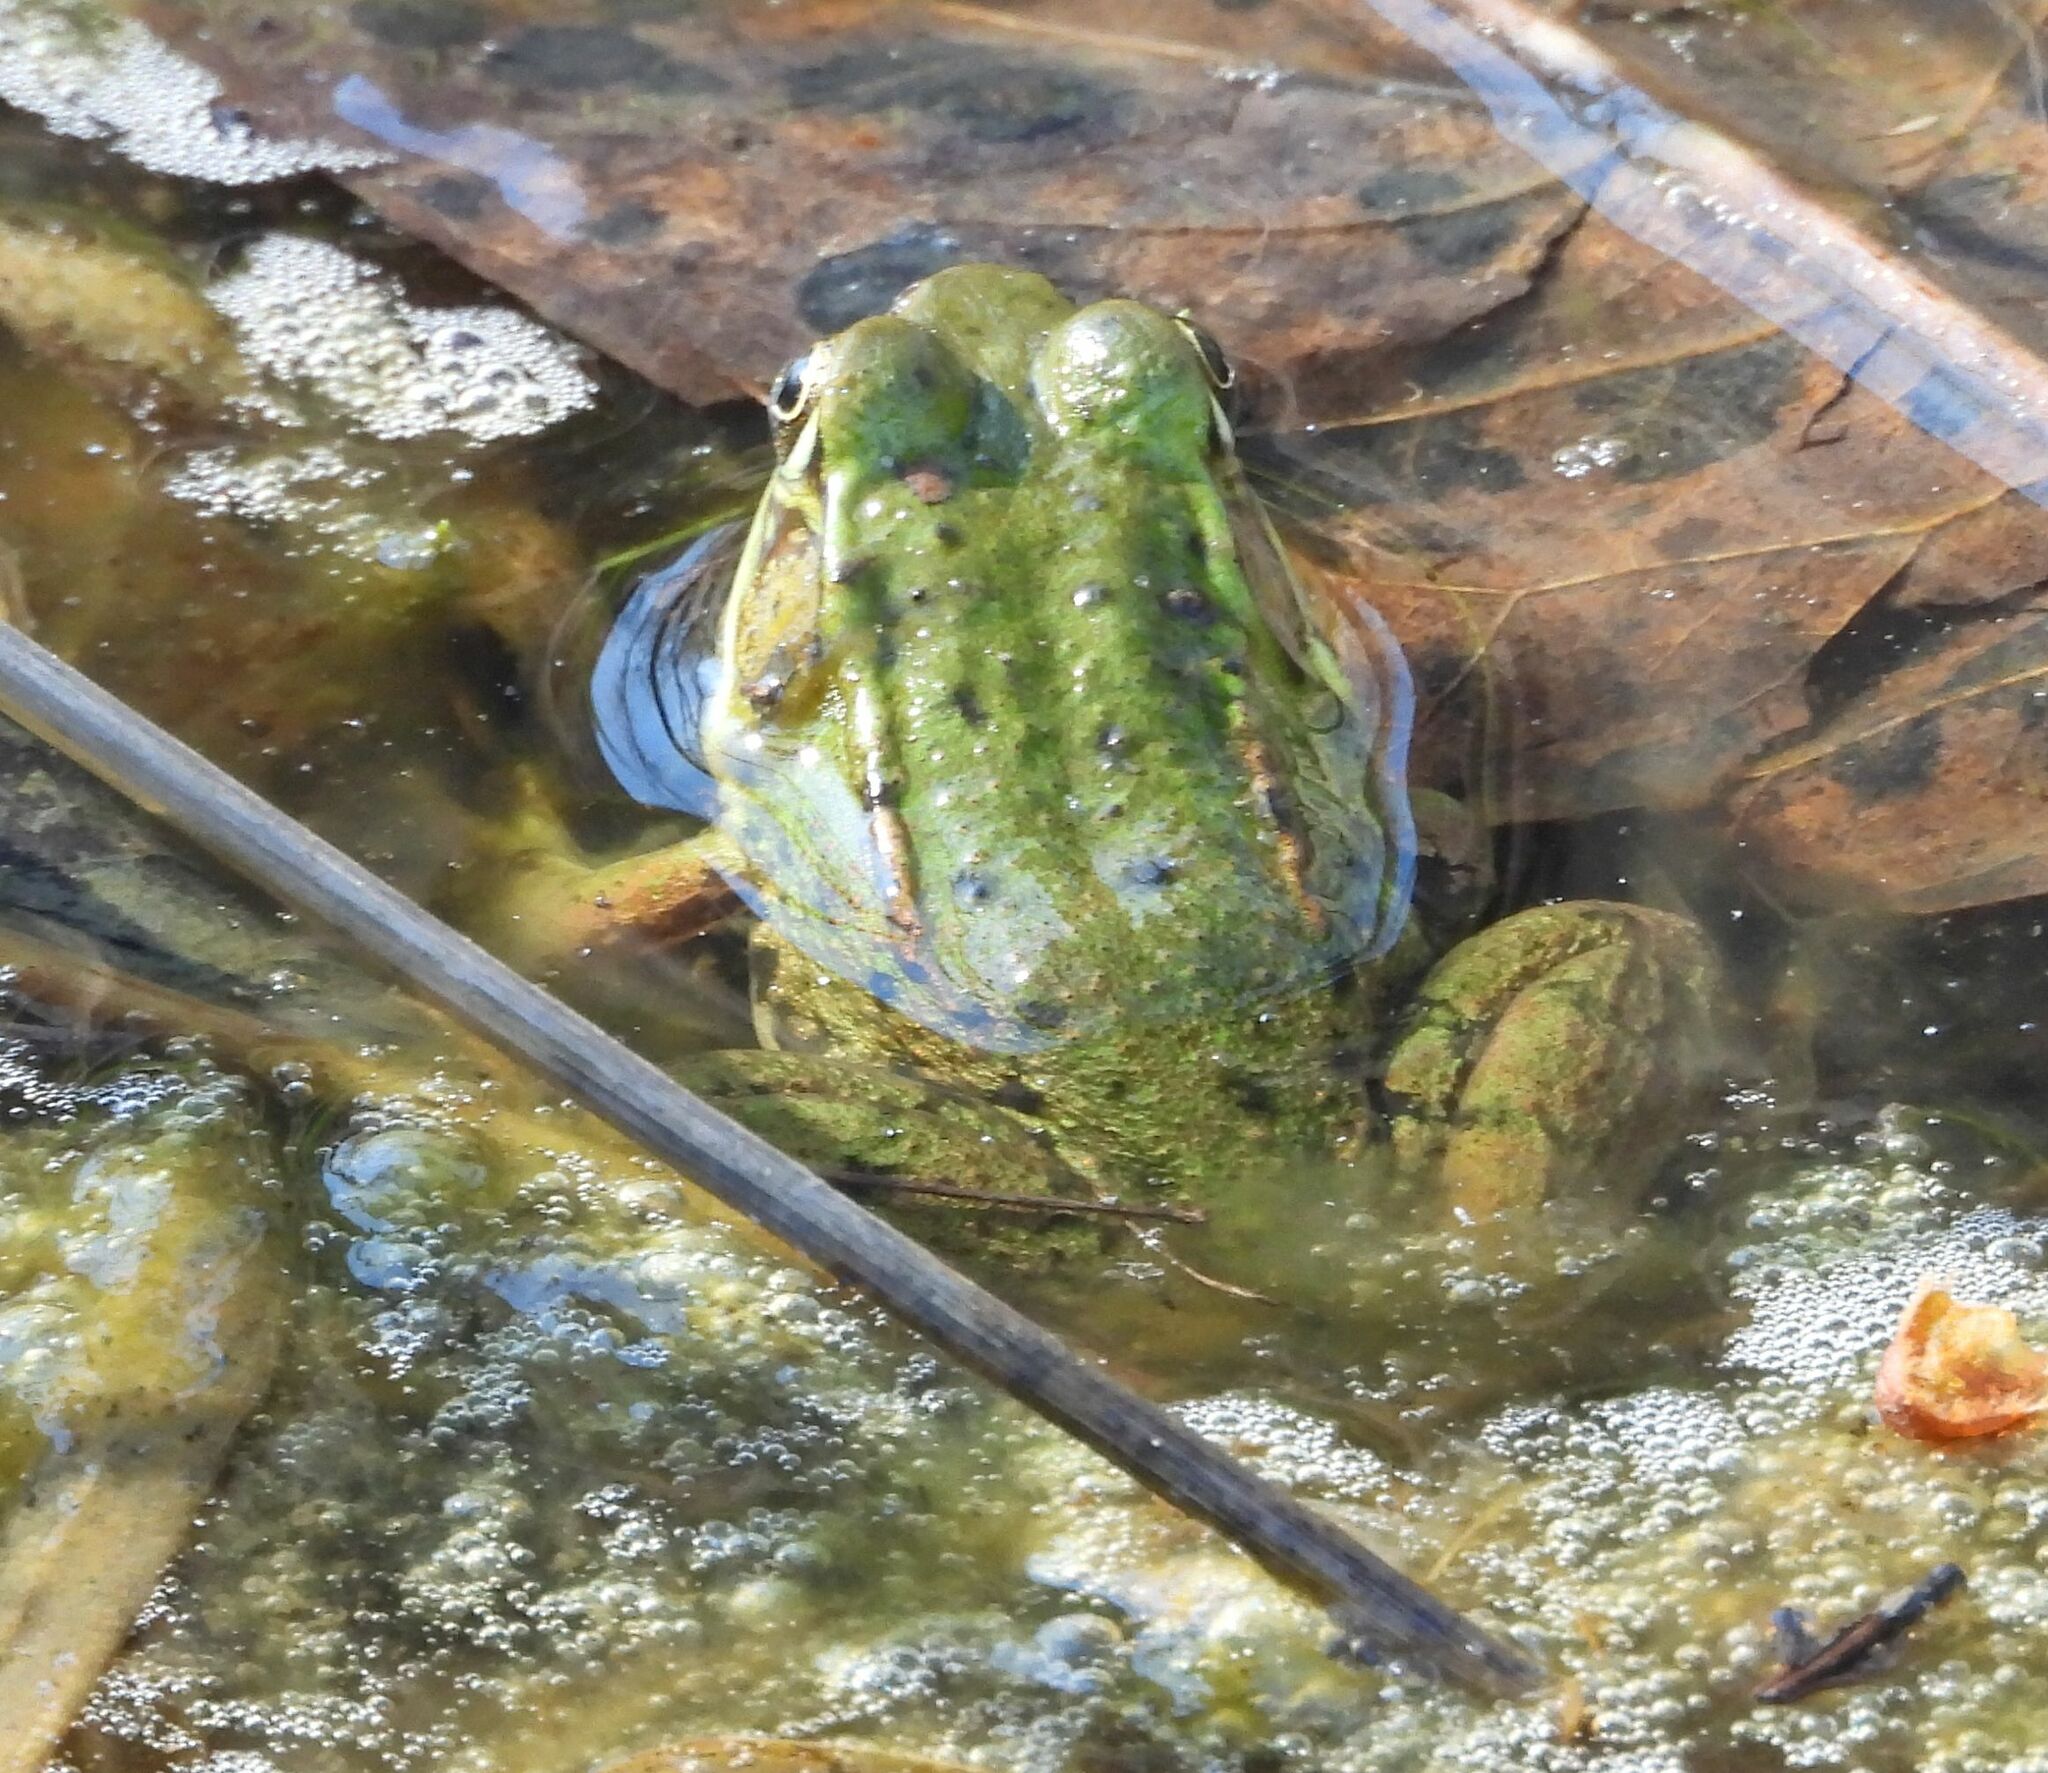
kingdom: Animalia
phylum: Chordata
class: Amphibia
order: Anura
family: Ranidae
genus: Lithobates
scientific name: Lithobates clamitans
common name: Green frog
